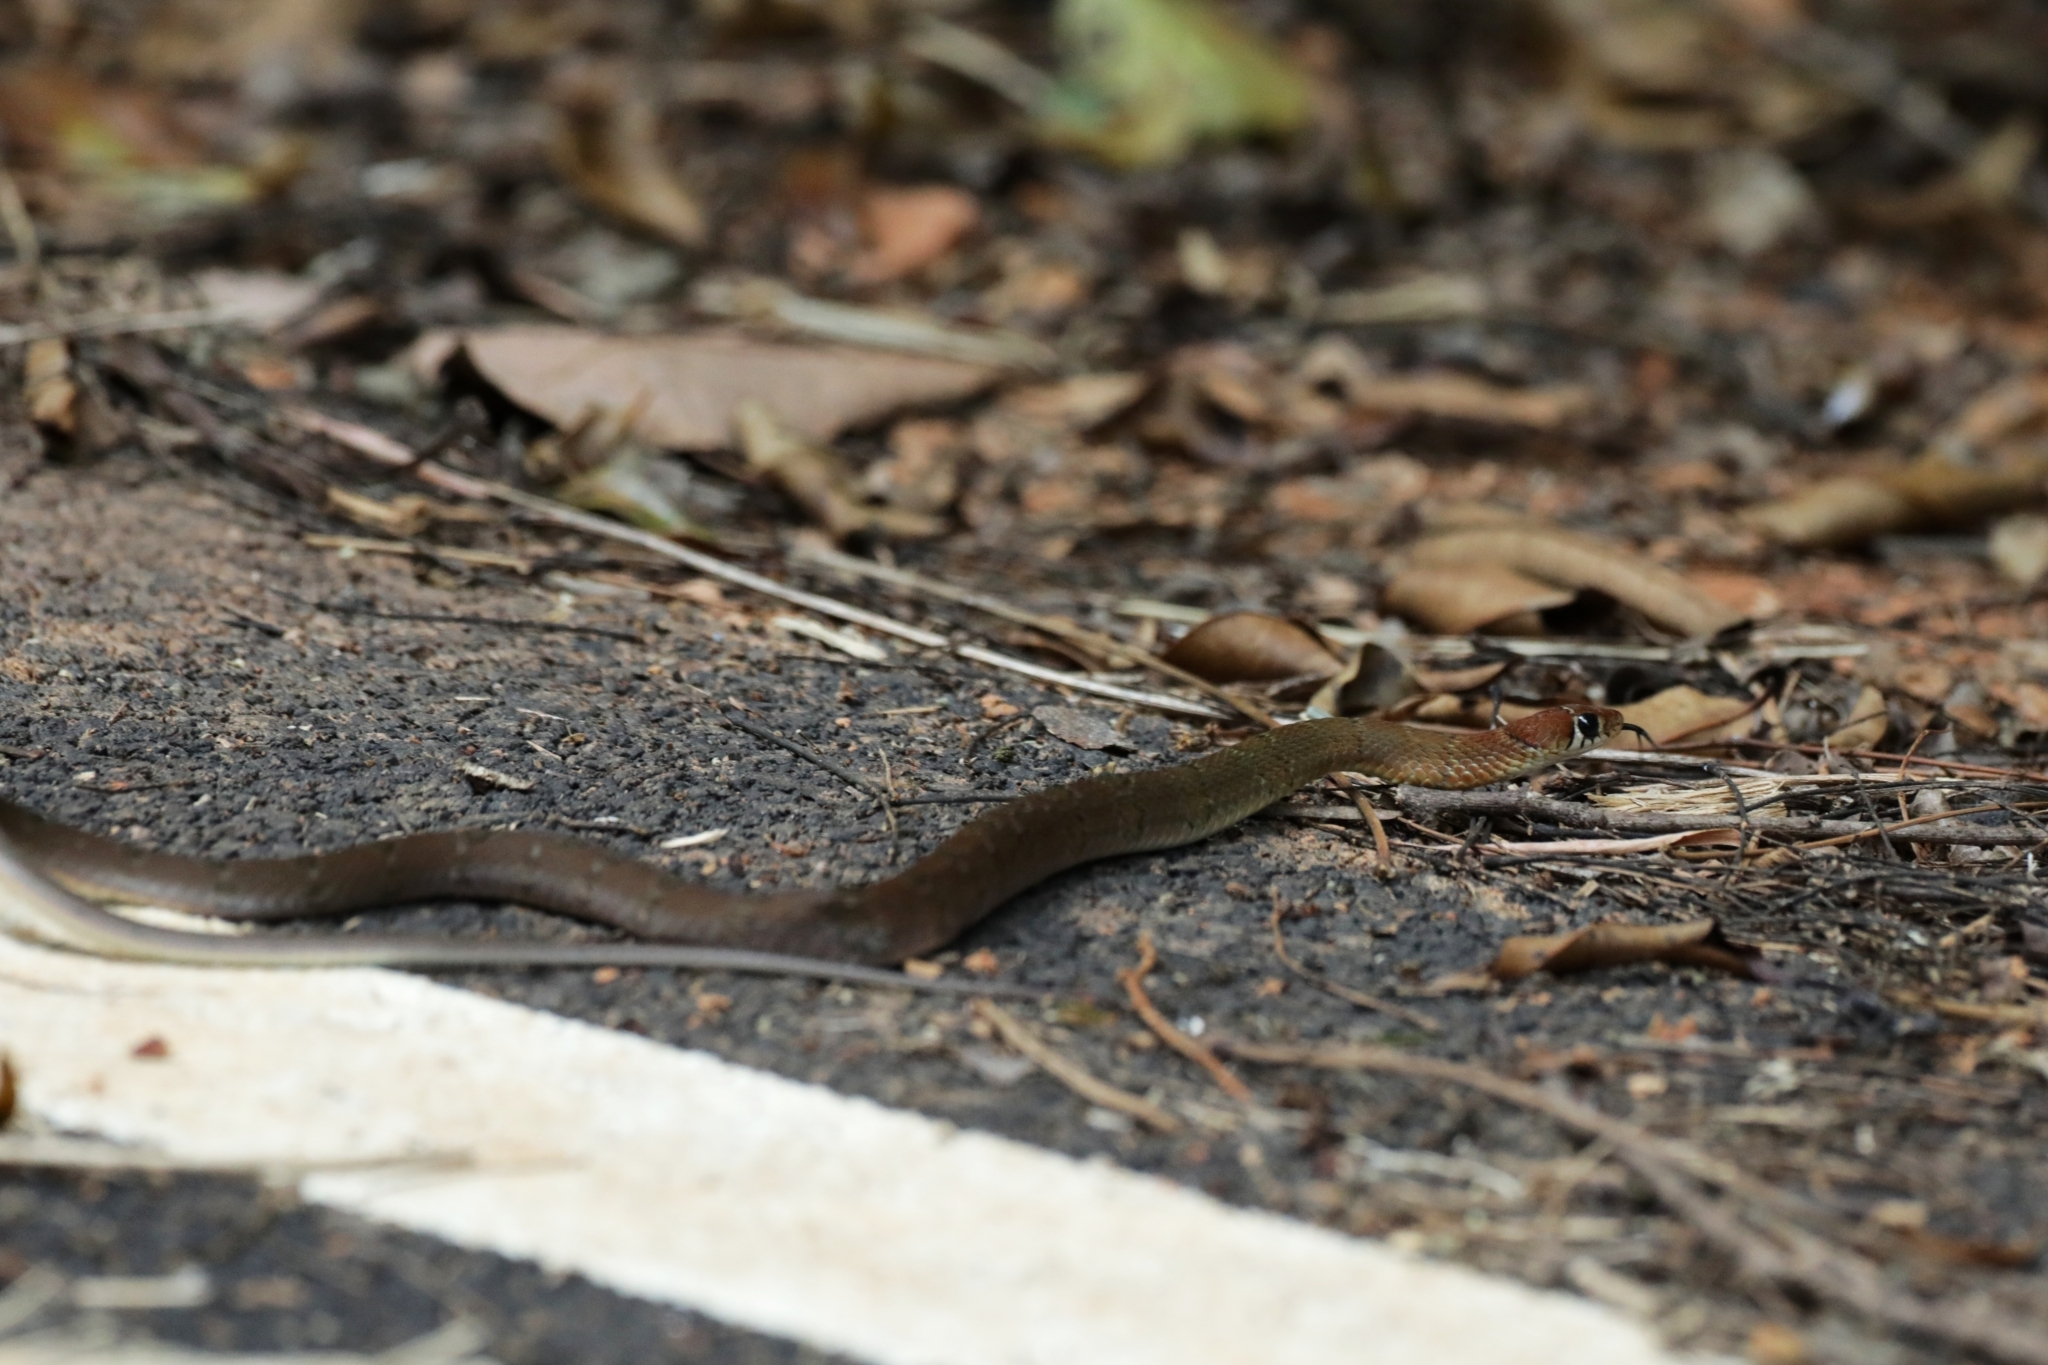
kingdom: Animalia
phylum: Chordata
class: Squamata
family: Colubridae
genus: Hebius
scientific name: Hebius monticola
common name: Wynad keelback
